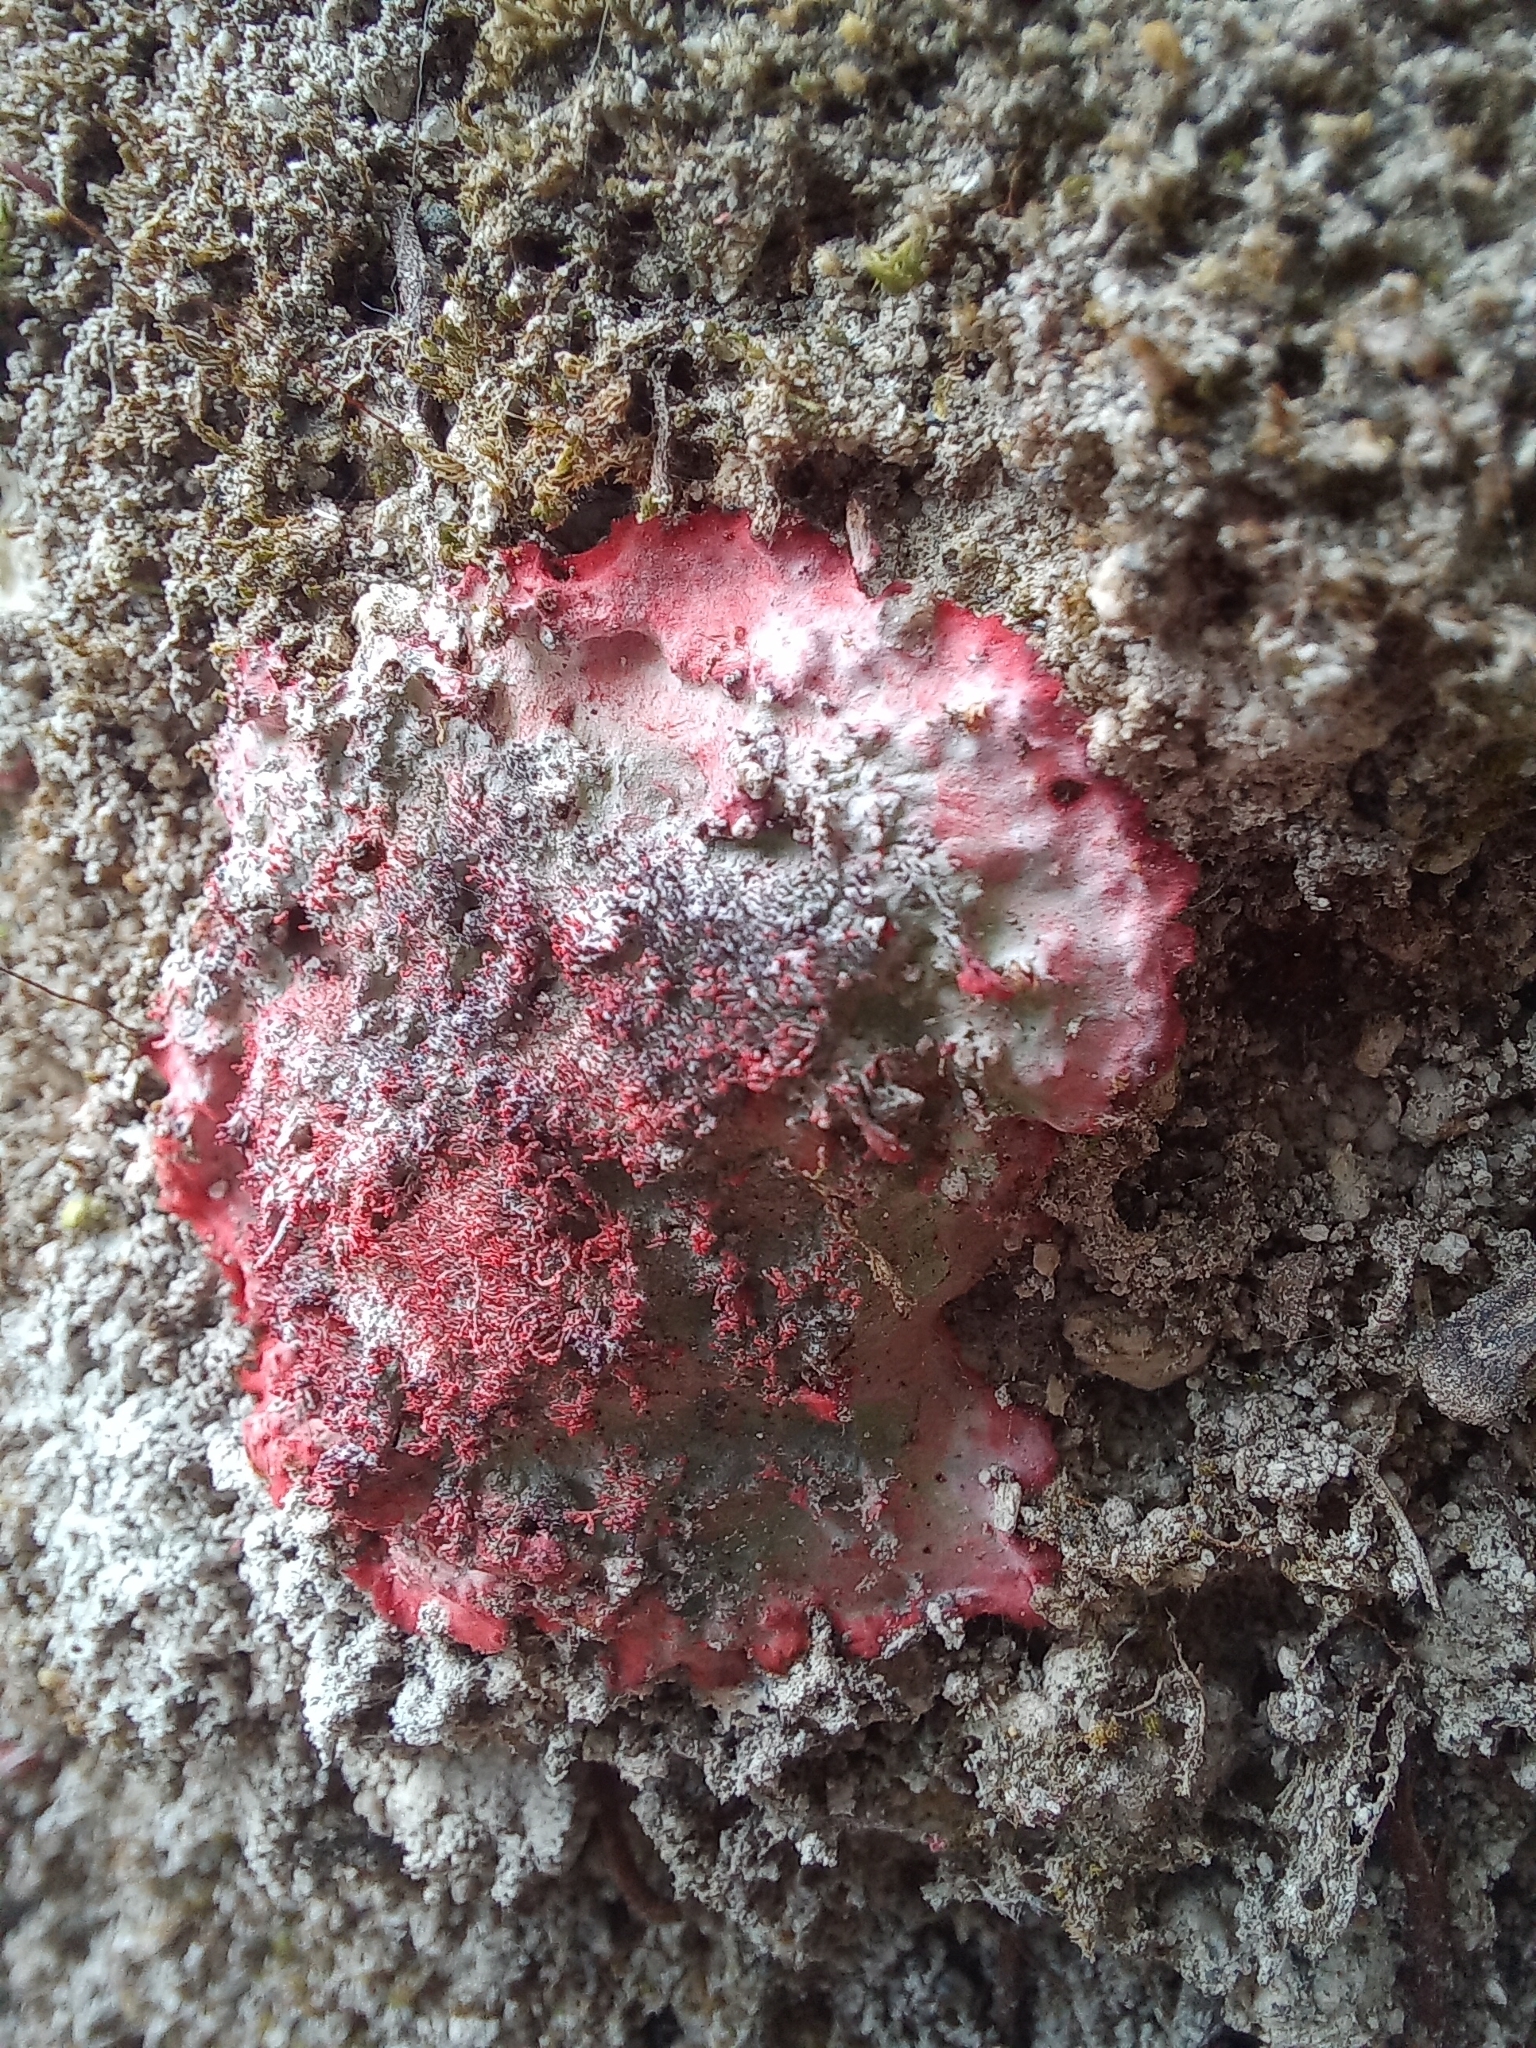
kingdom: Fungi
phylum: Ascomycota
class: Arthoniomycetes
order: Arthoniales
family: Arthoniaceae
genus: Herpothallon
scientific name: Herpothallon rubrocinctum
